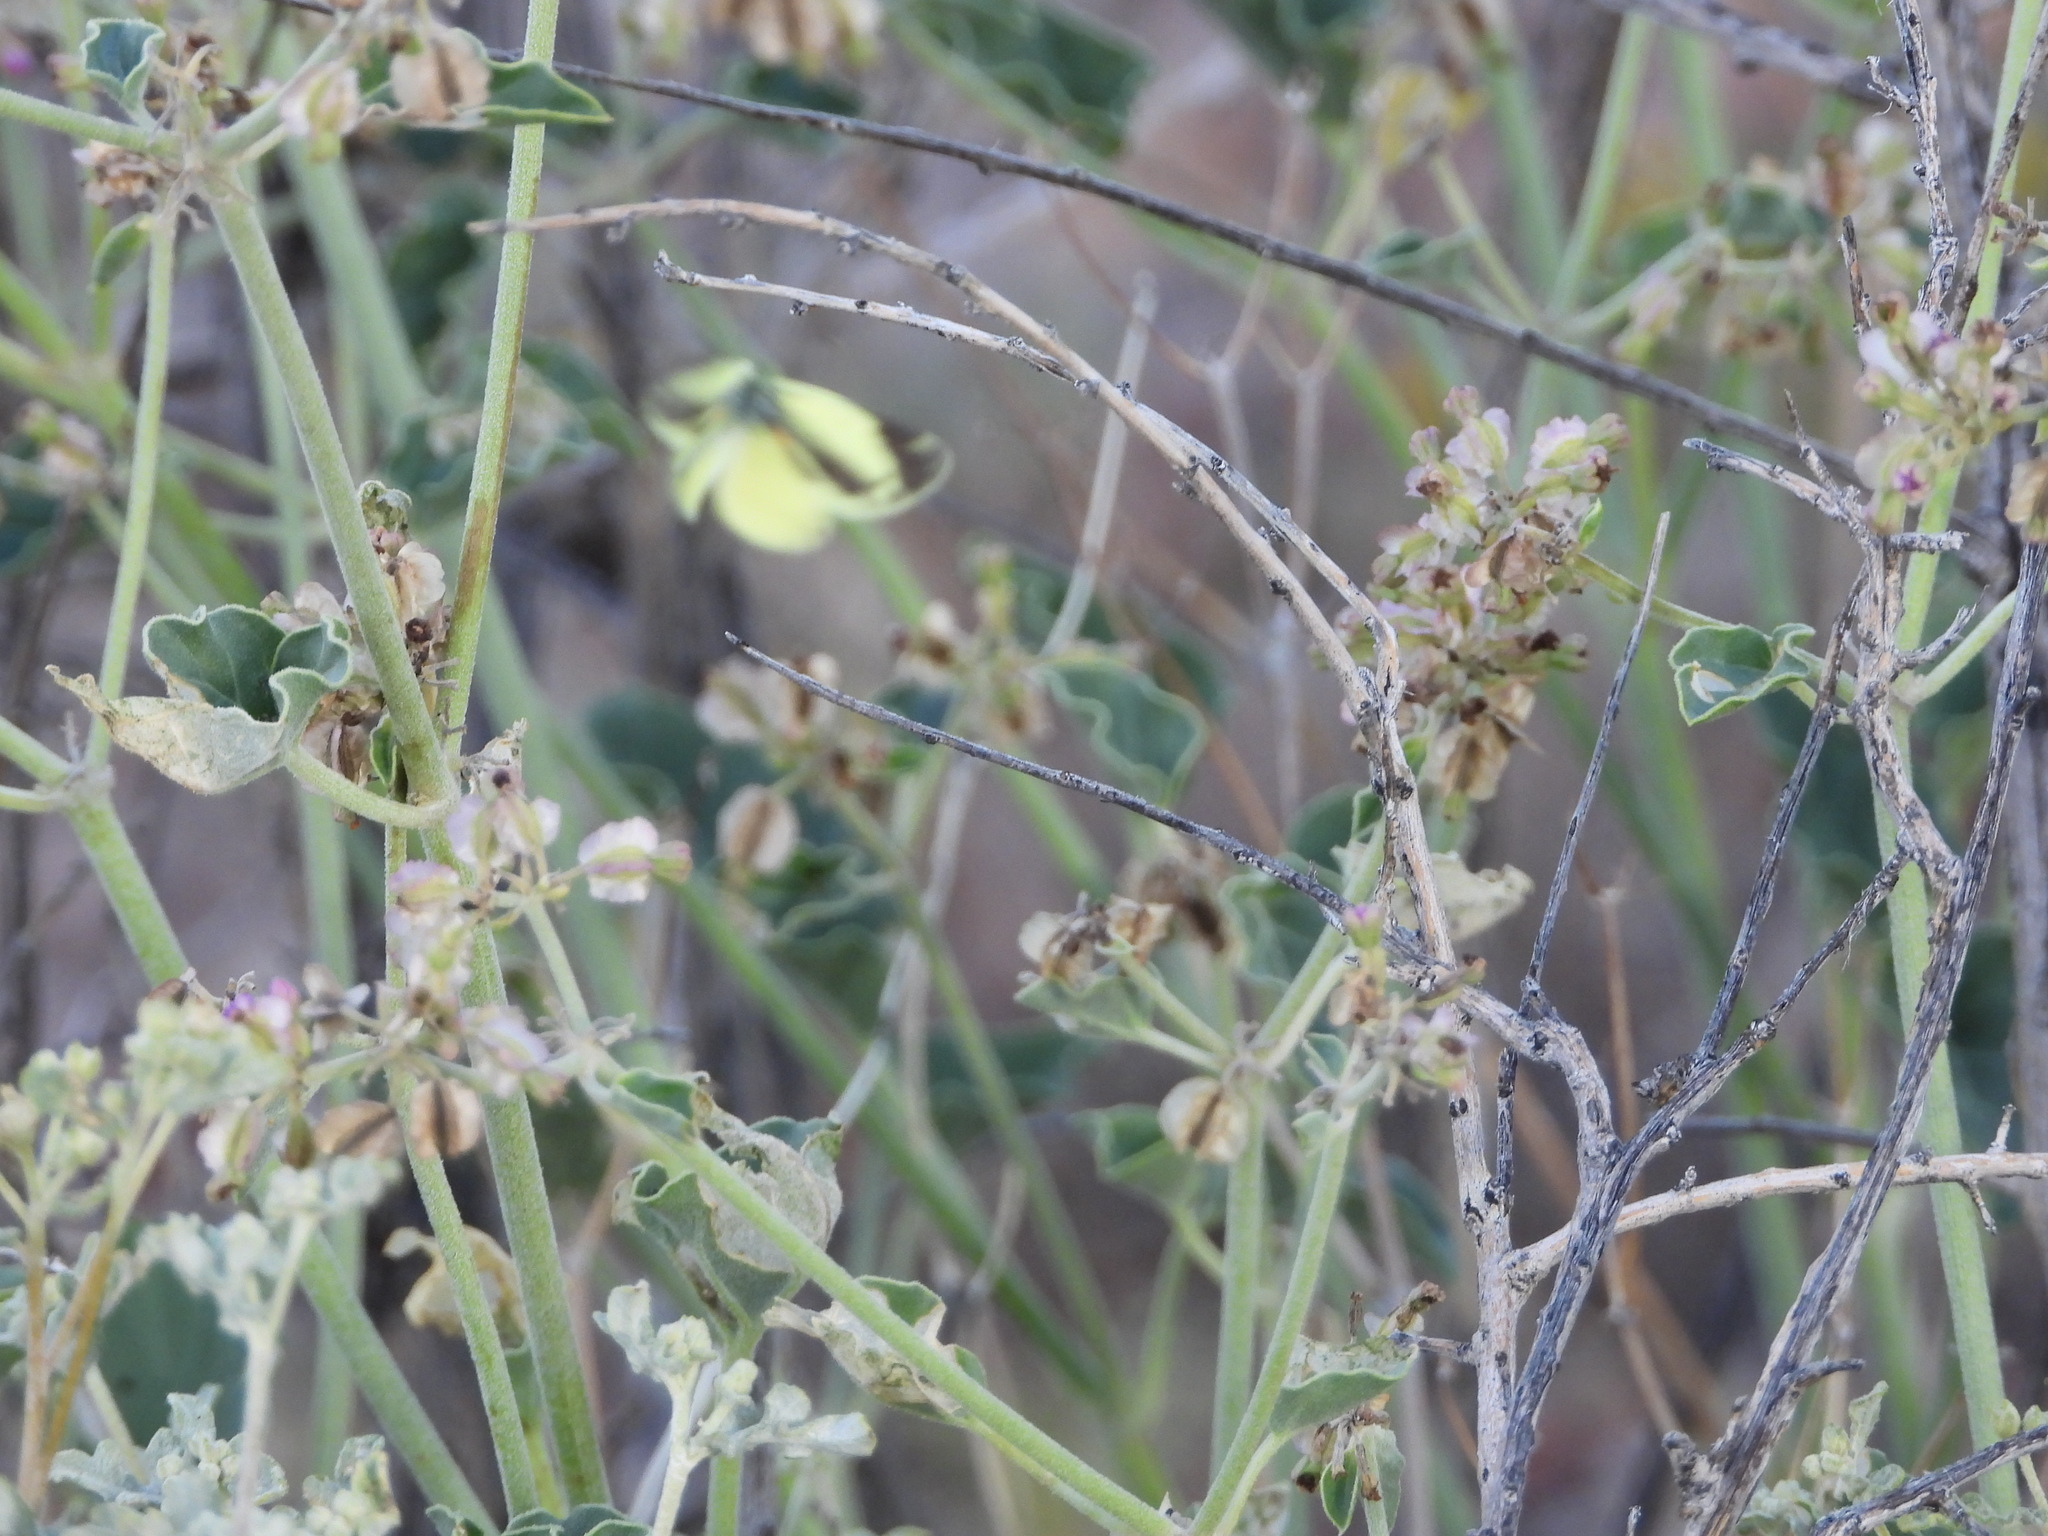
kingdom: Animalia
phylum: Arthropoda
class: Insecta
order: Lepidoptera
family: Pieridae
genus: Nathalis
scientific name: Nathalis iole
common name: Dainty sulphur
